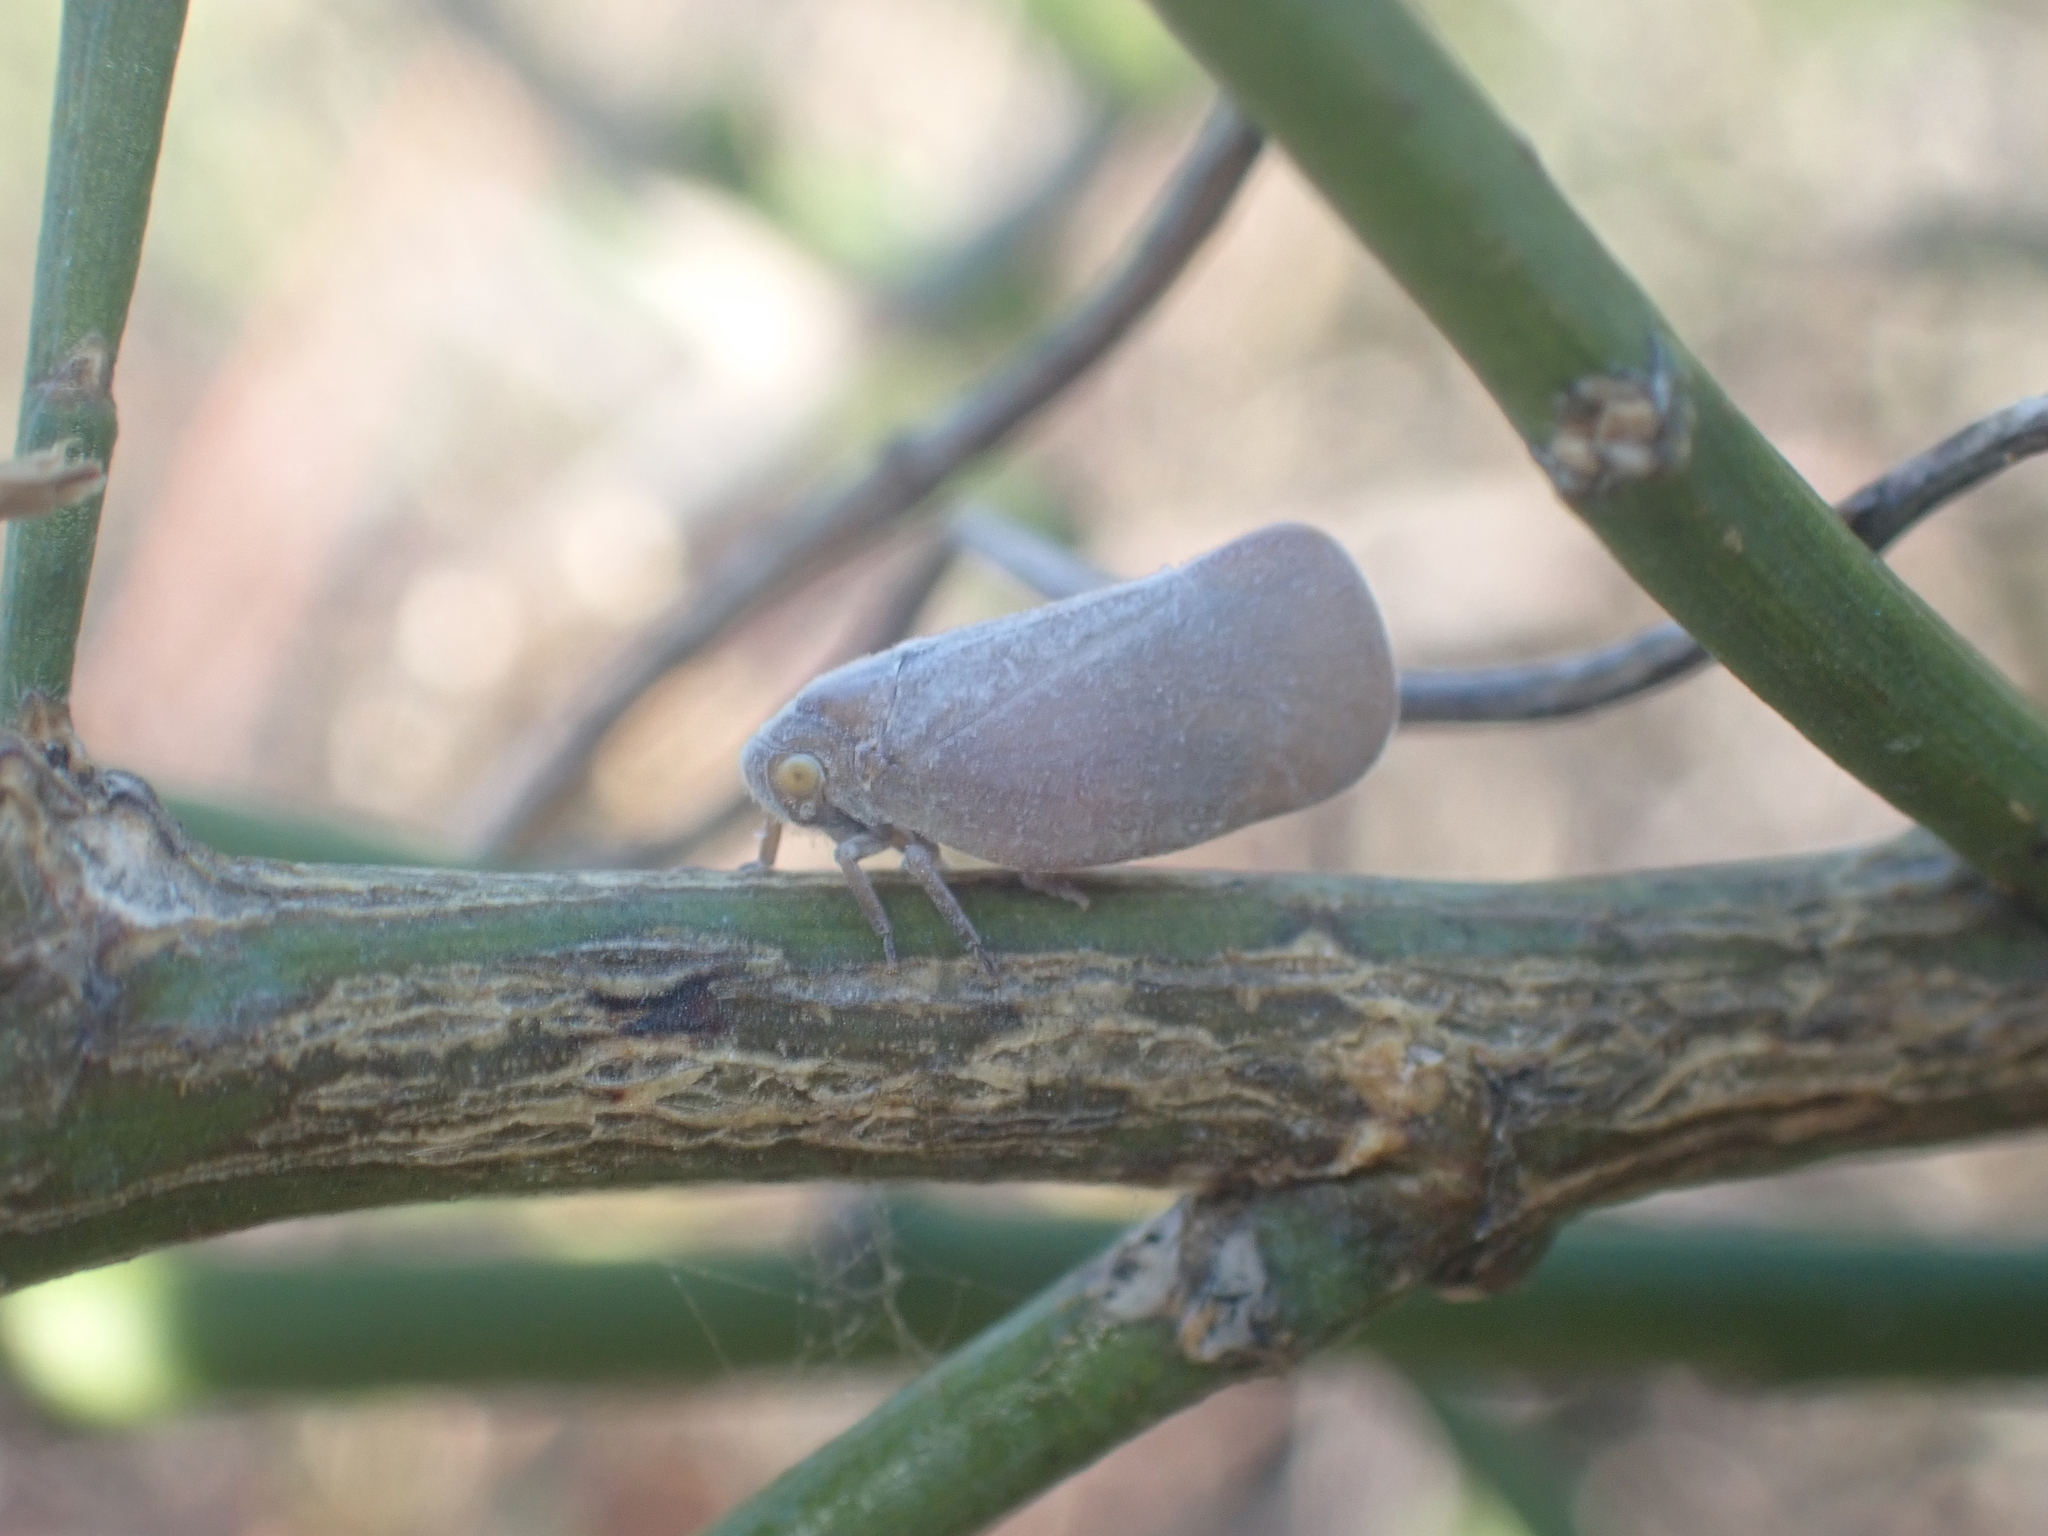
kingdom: Animalia
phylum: Arthropoda
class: Insecta
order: Hemiptera
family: Flatidae
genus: Anzora
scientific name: Anzora unicolor
